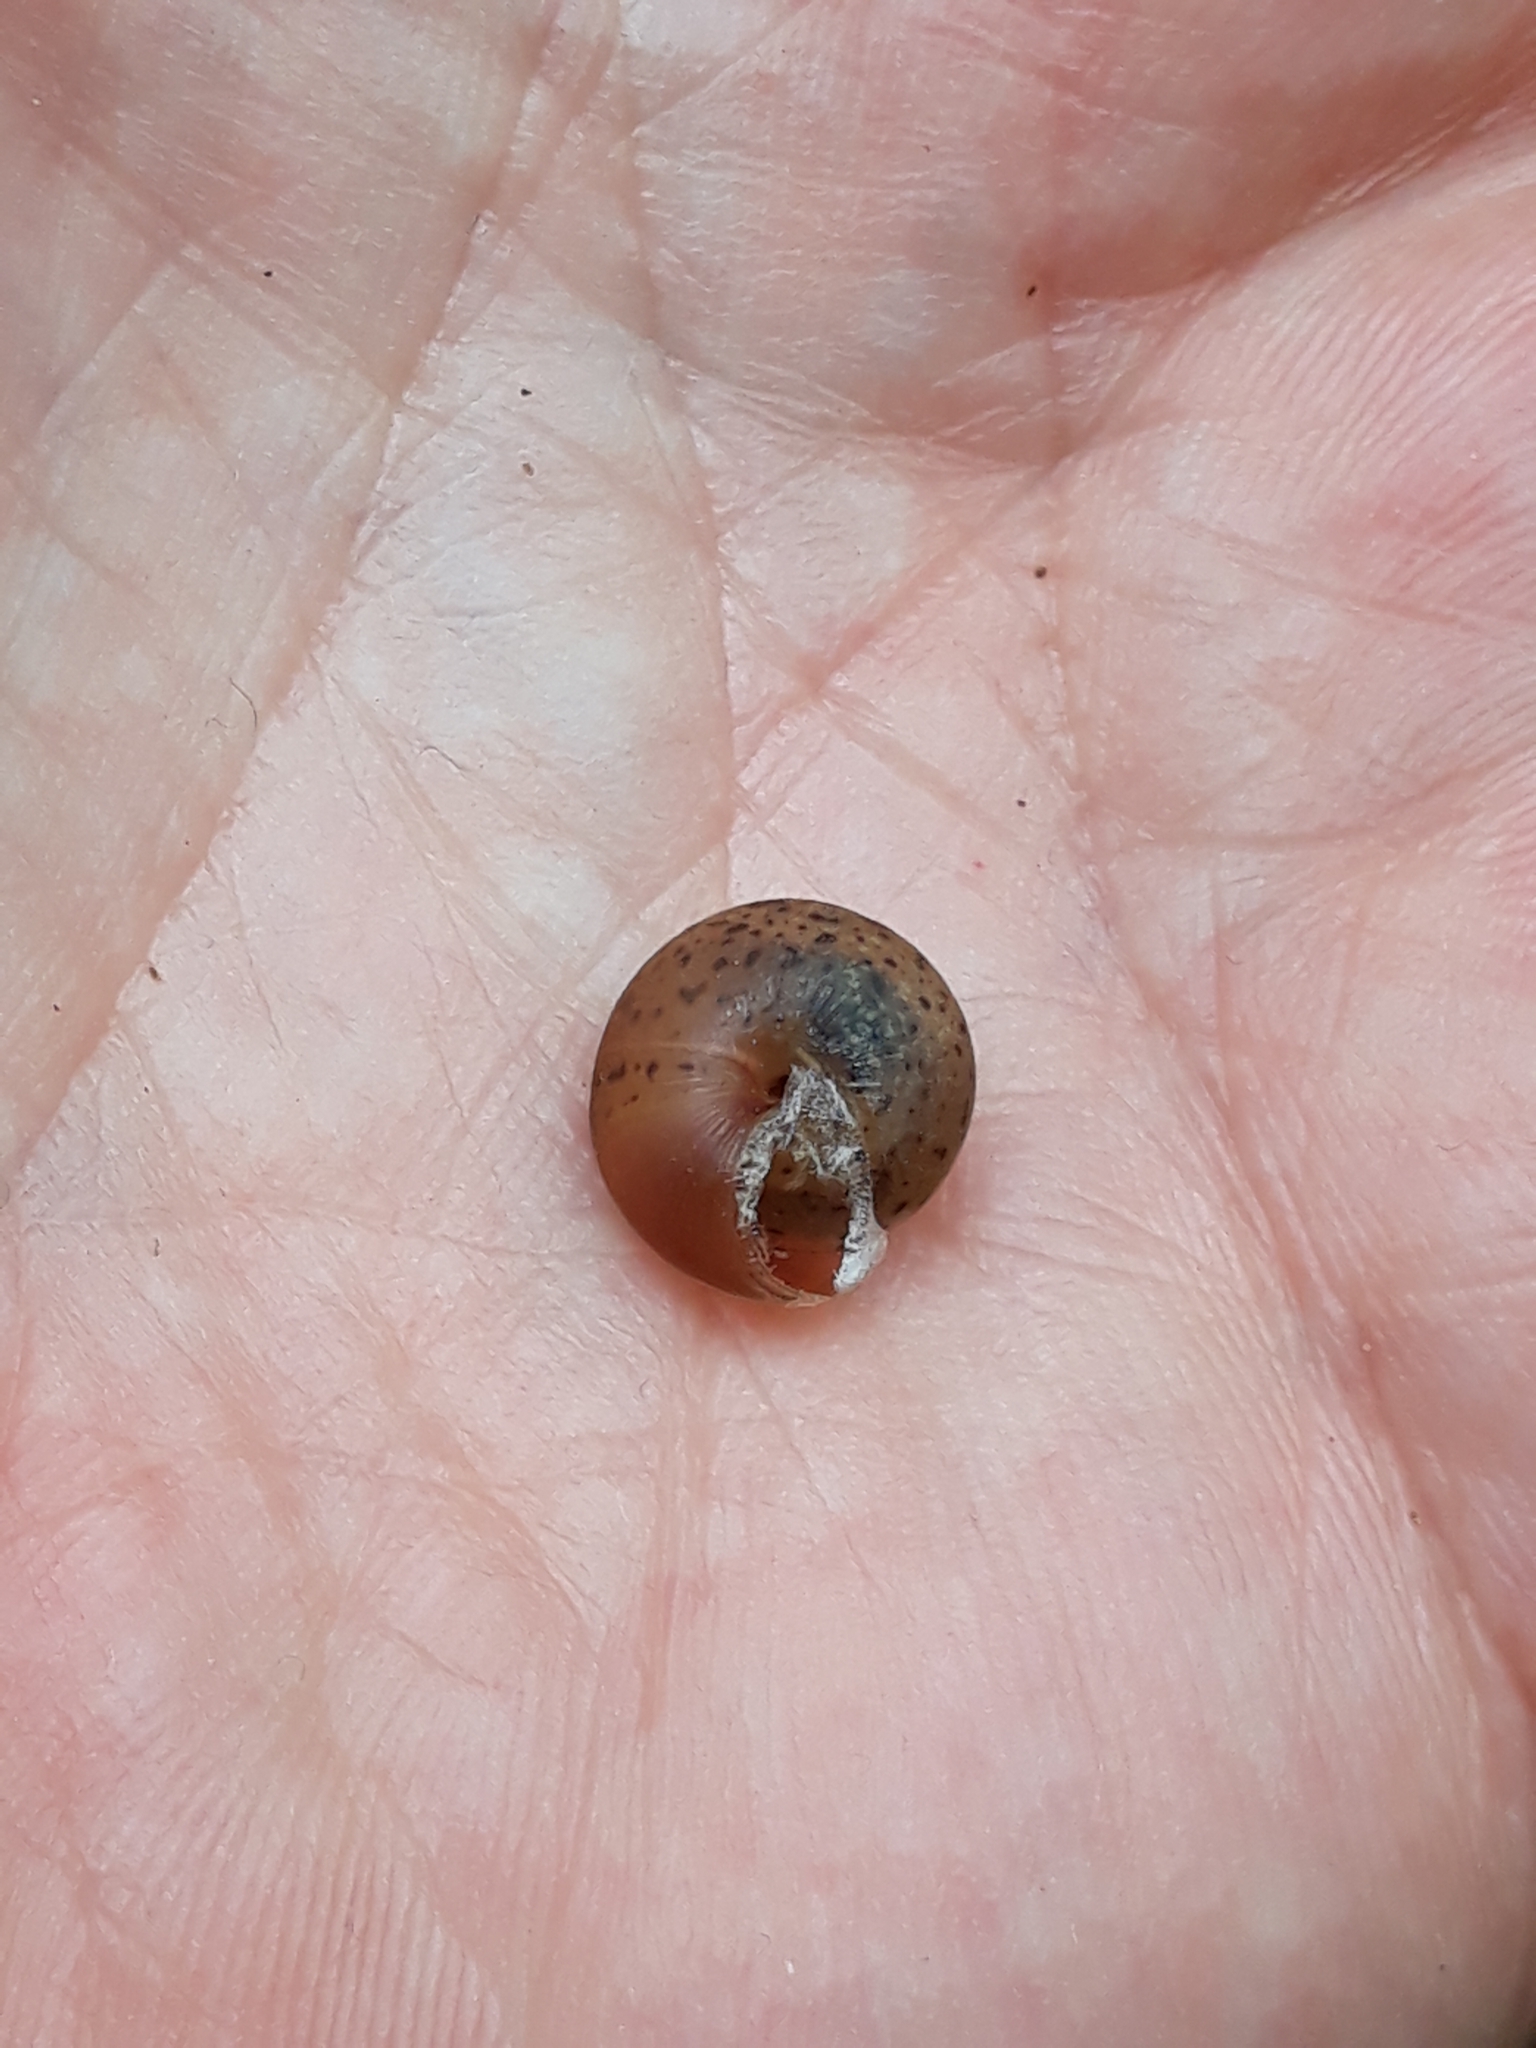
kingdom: Animalia
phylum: Mollusca
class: Gastropoda
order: Stylommatophora
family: Hygromiidae
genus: Monachoides
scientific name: Monachoides incarnatus
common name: Incarnate snail
